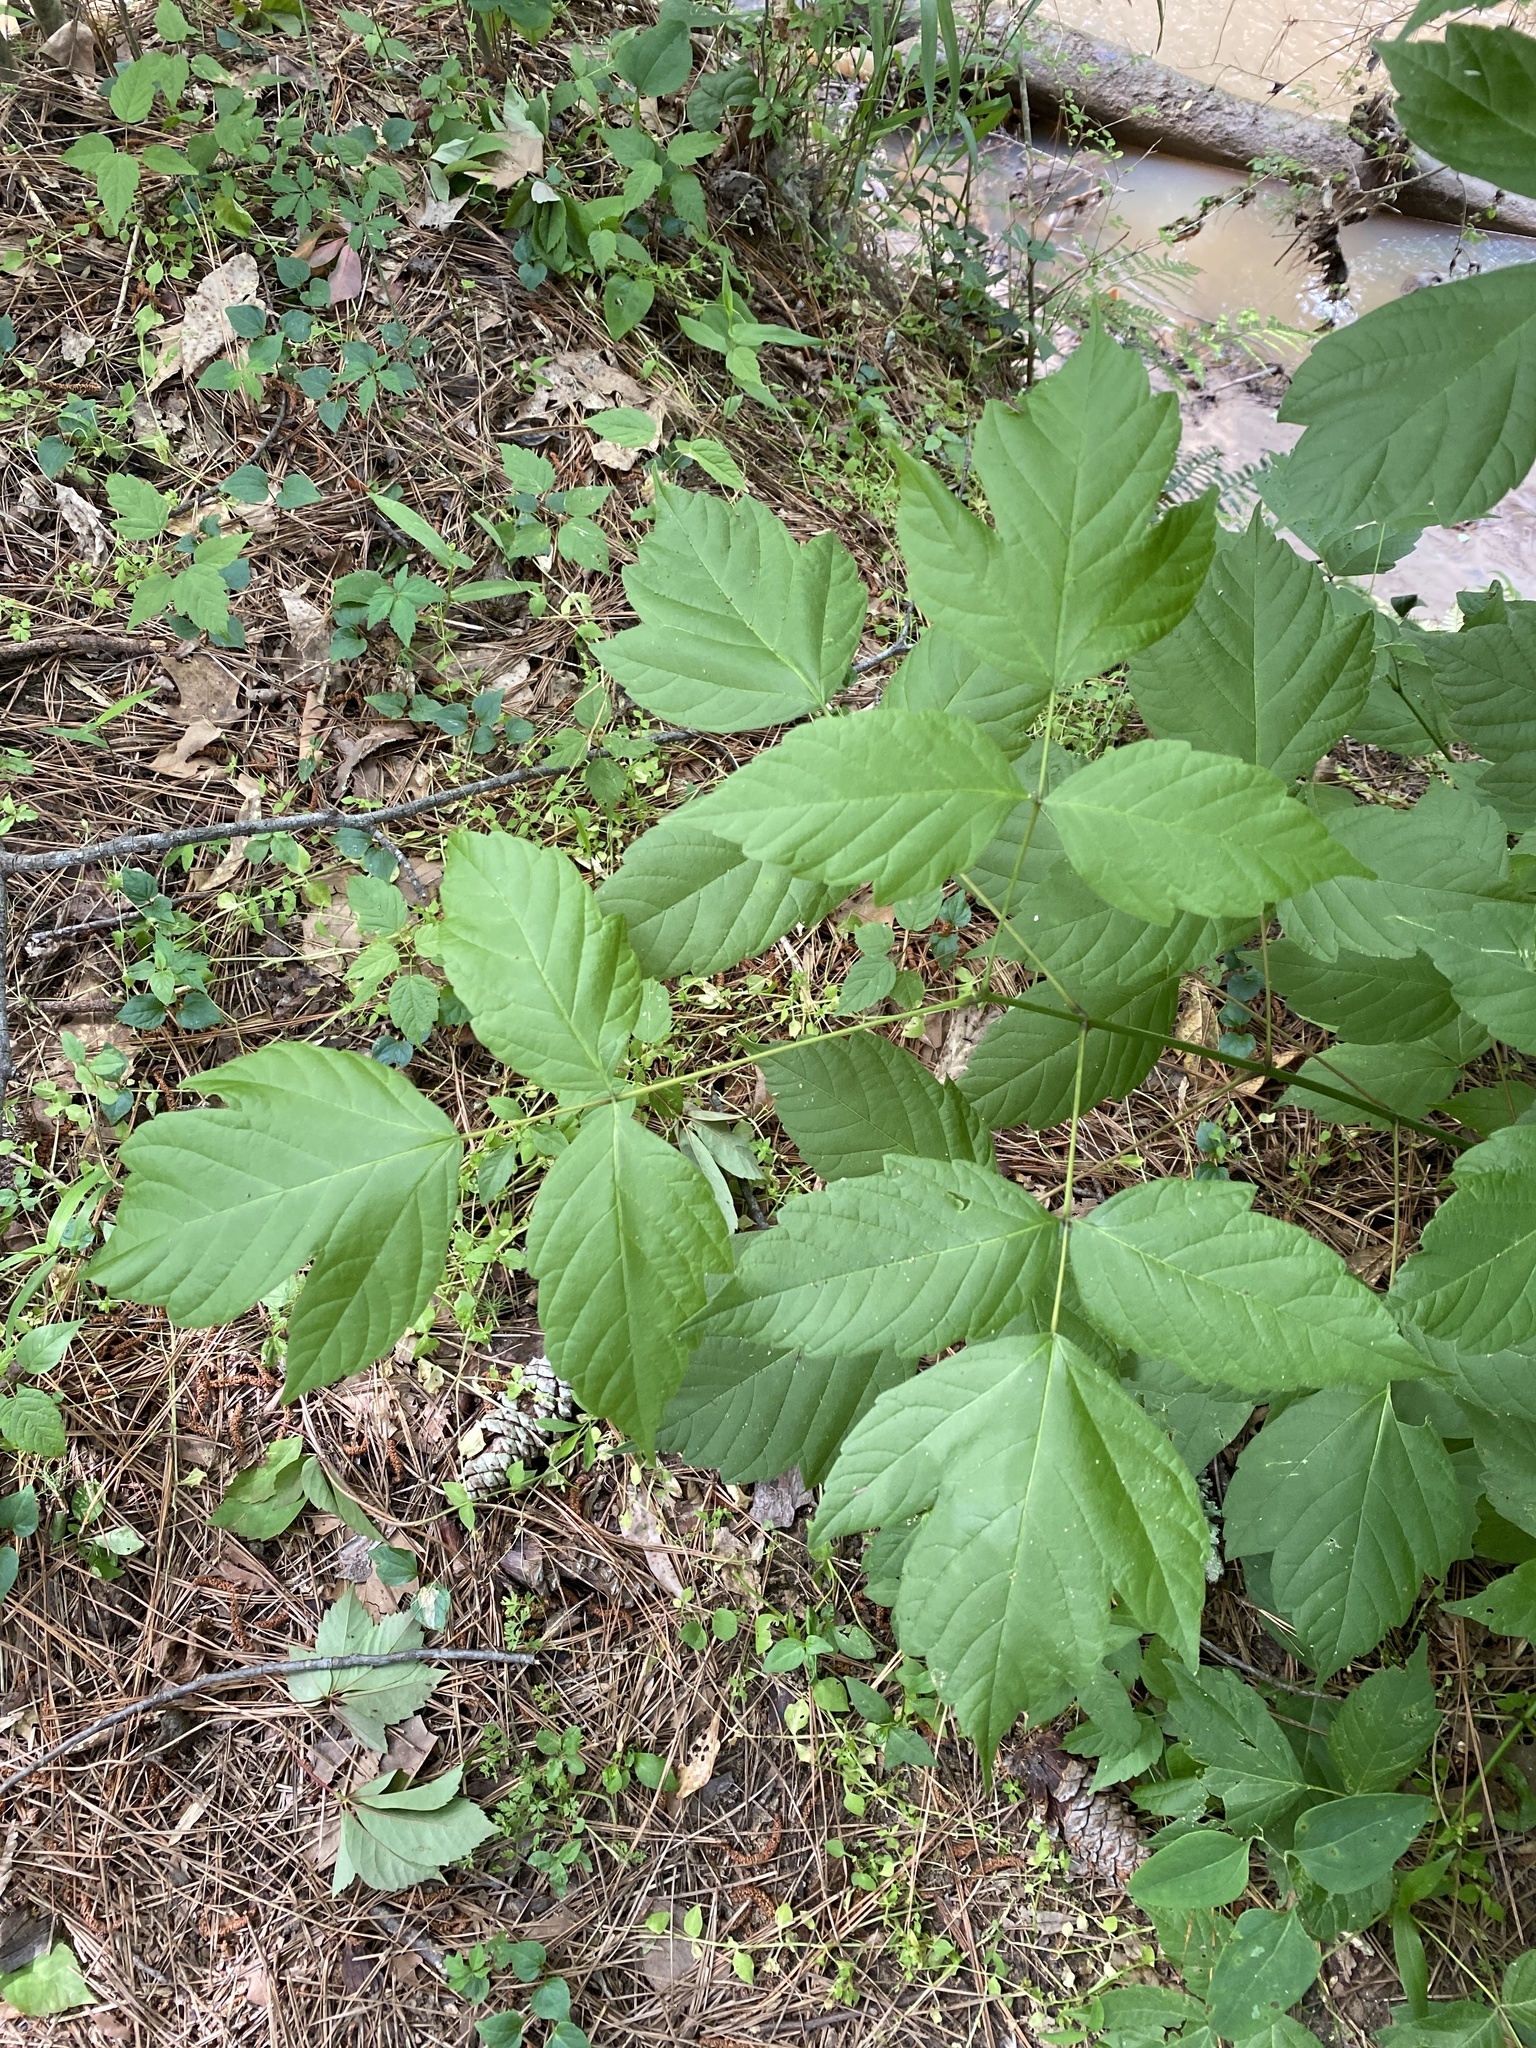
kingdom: Plantae
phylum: Tracheophyta
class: Magnoliopsida
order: Sapindales
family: Sapindaceae
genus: Acer
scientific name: Acer negundo
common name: Ashleaf maple
